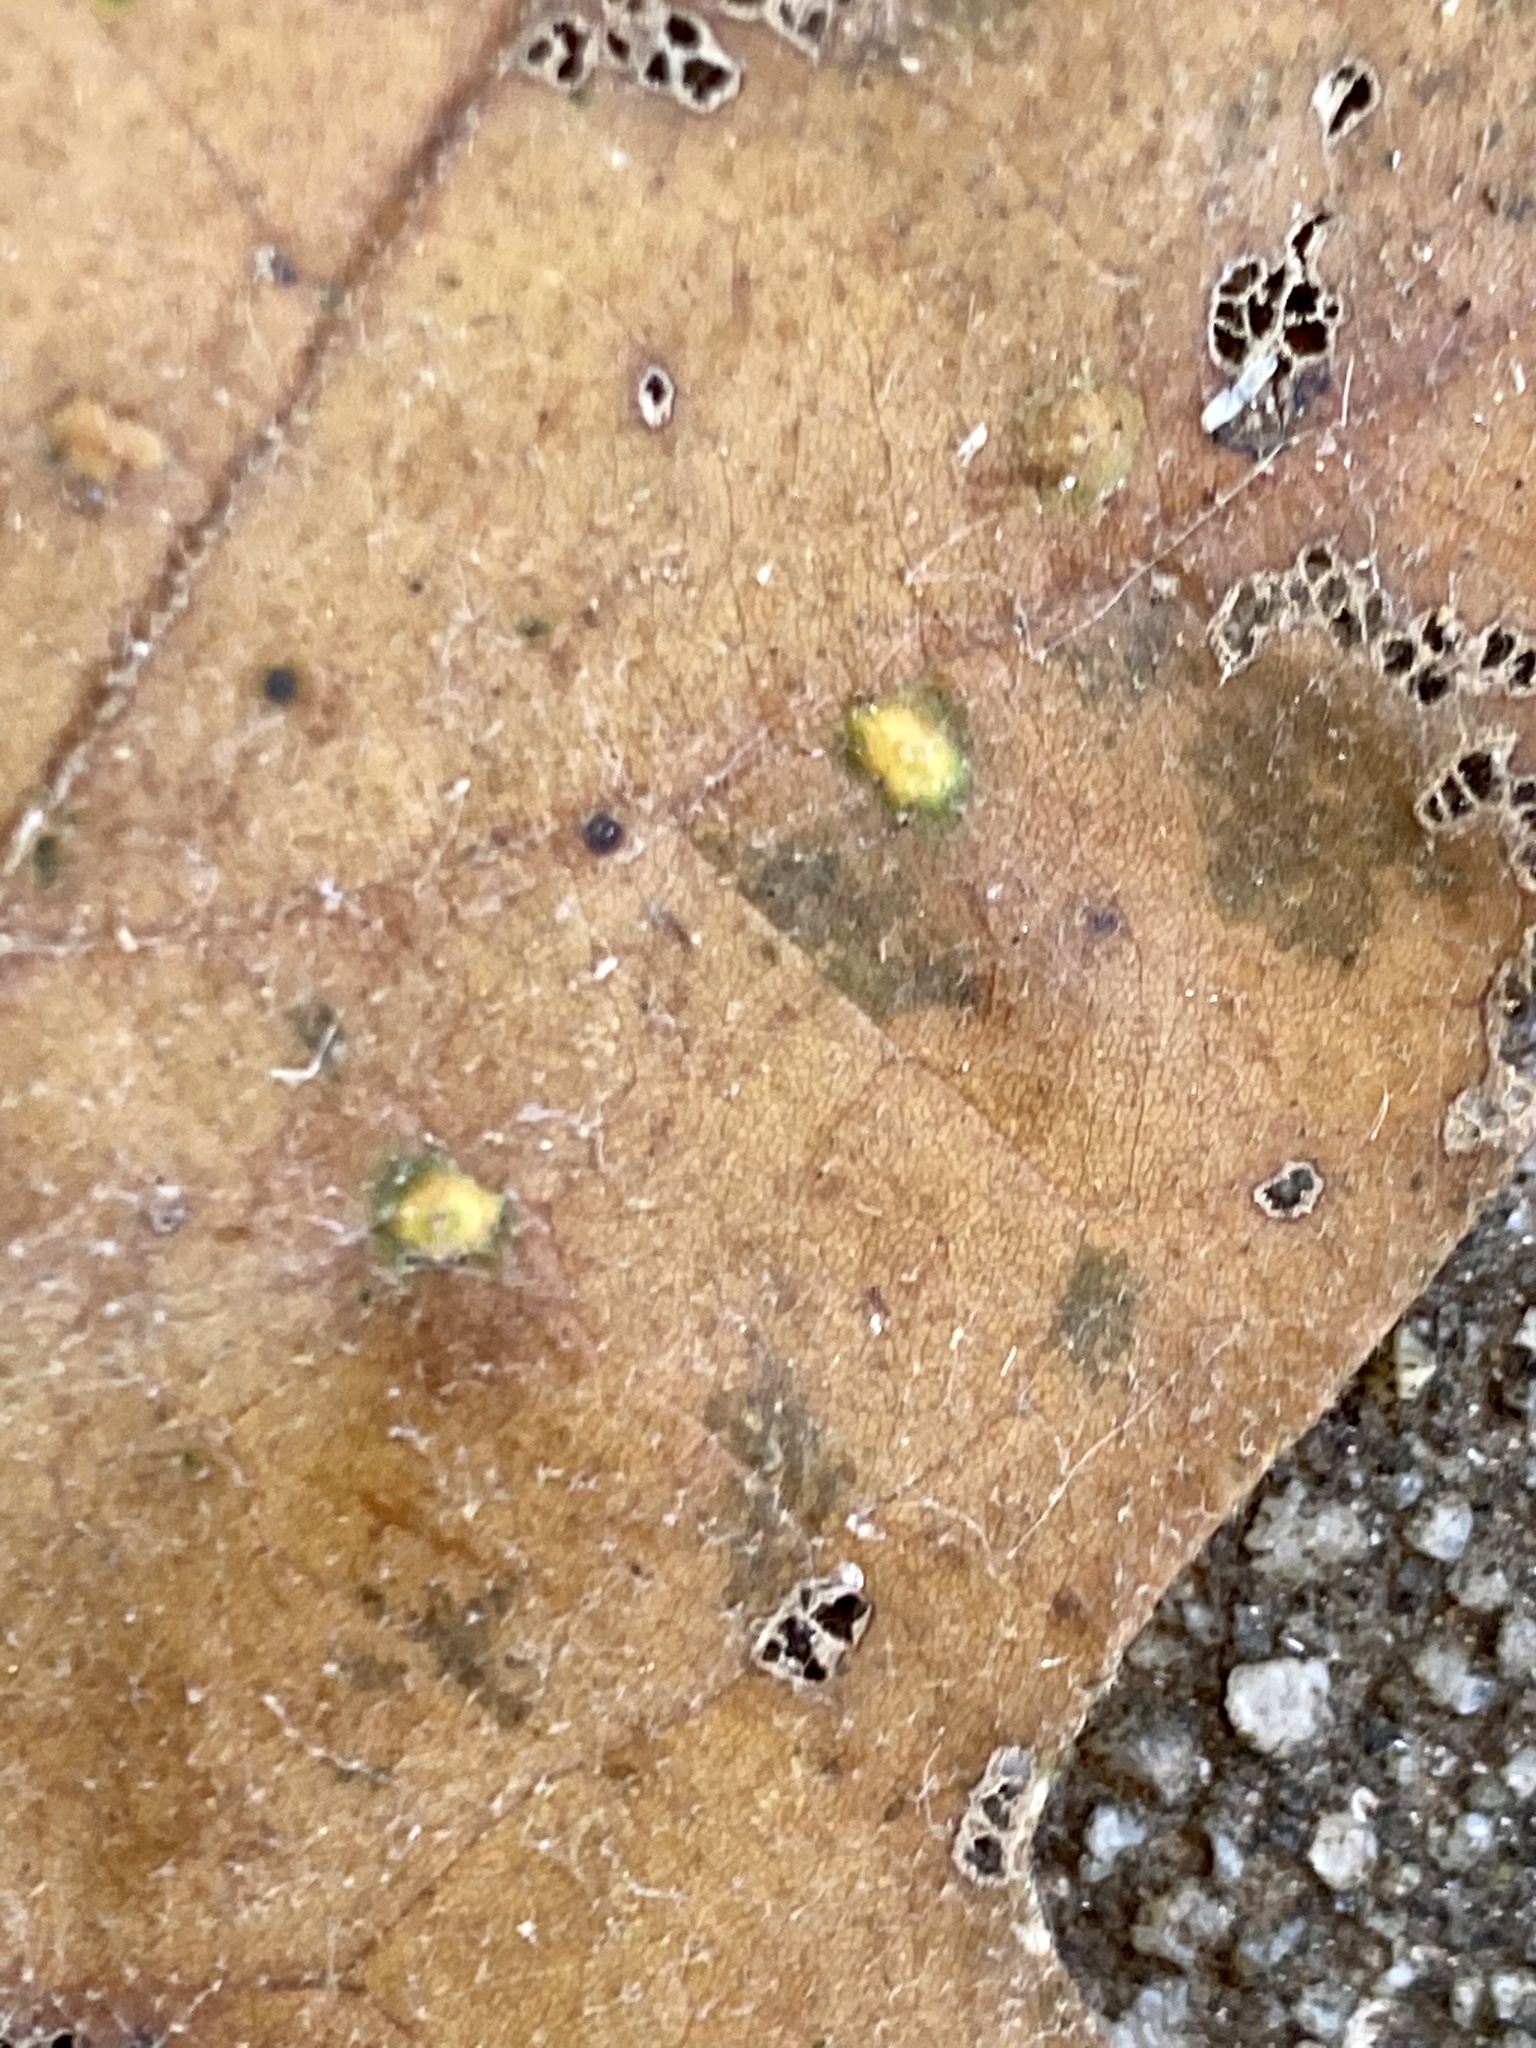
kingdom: Animalia
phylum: Arthropoda
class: Insecta
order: Hymenoptera
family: Cynipidae
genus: Neuroterus
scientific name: Neuroterus niger
